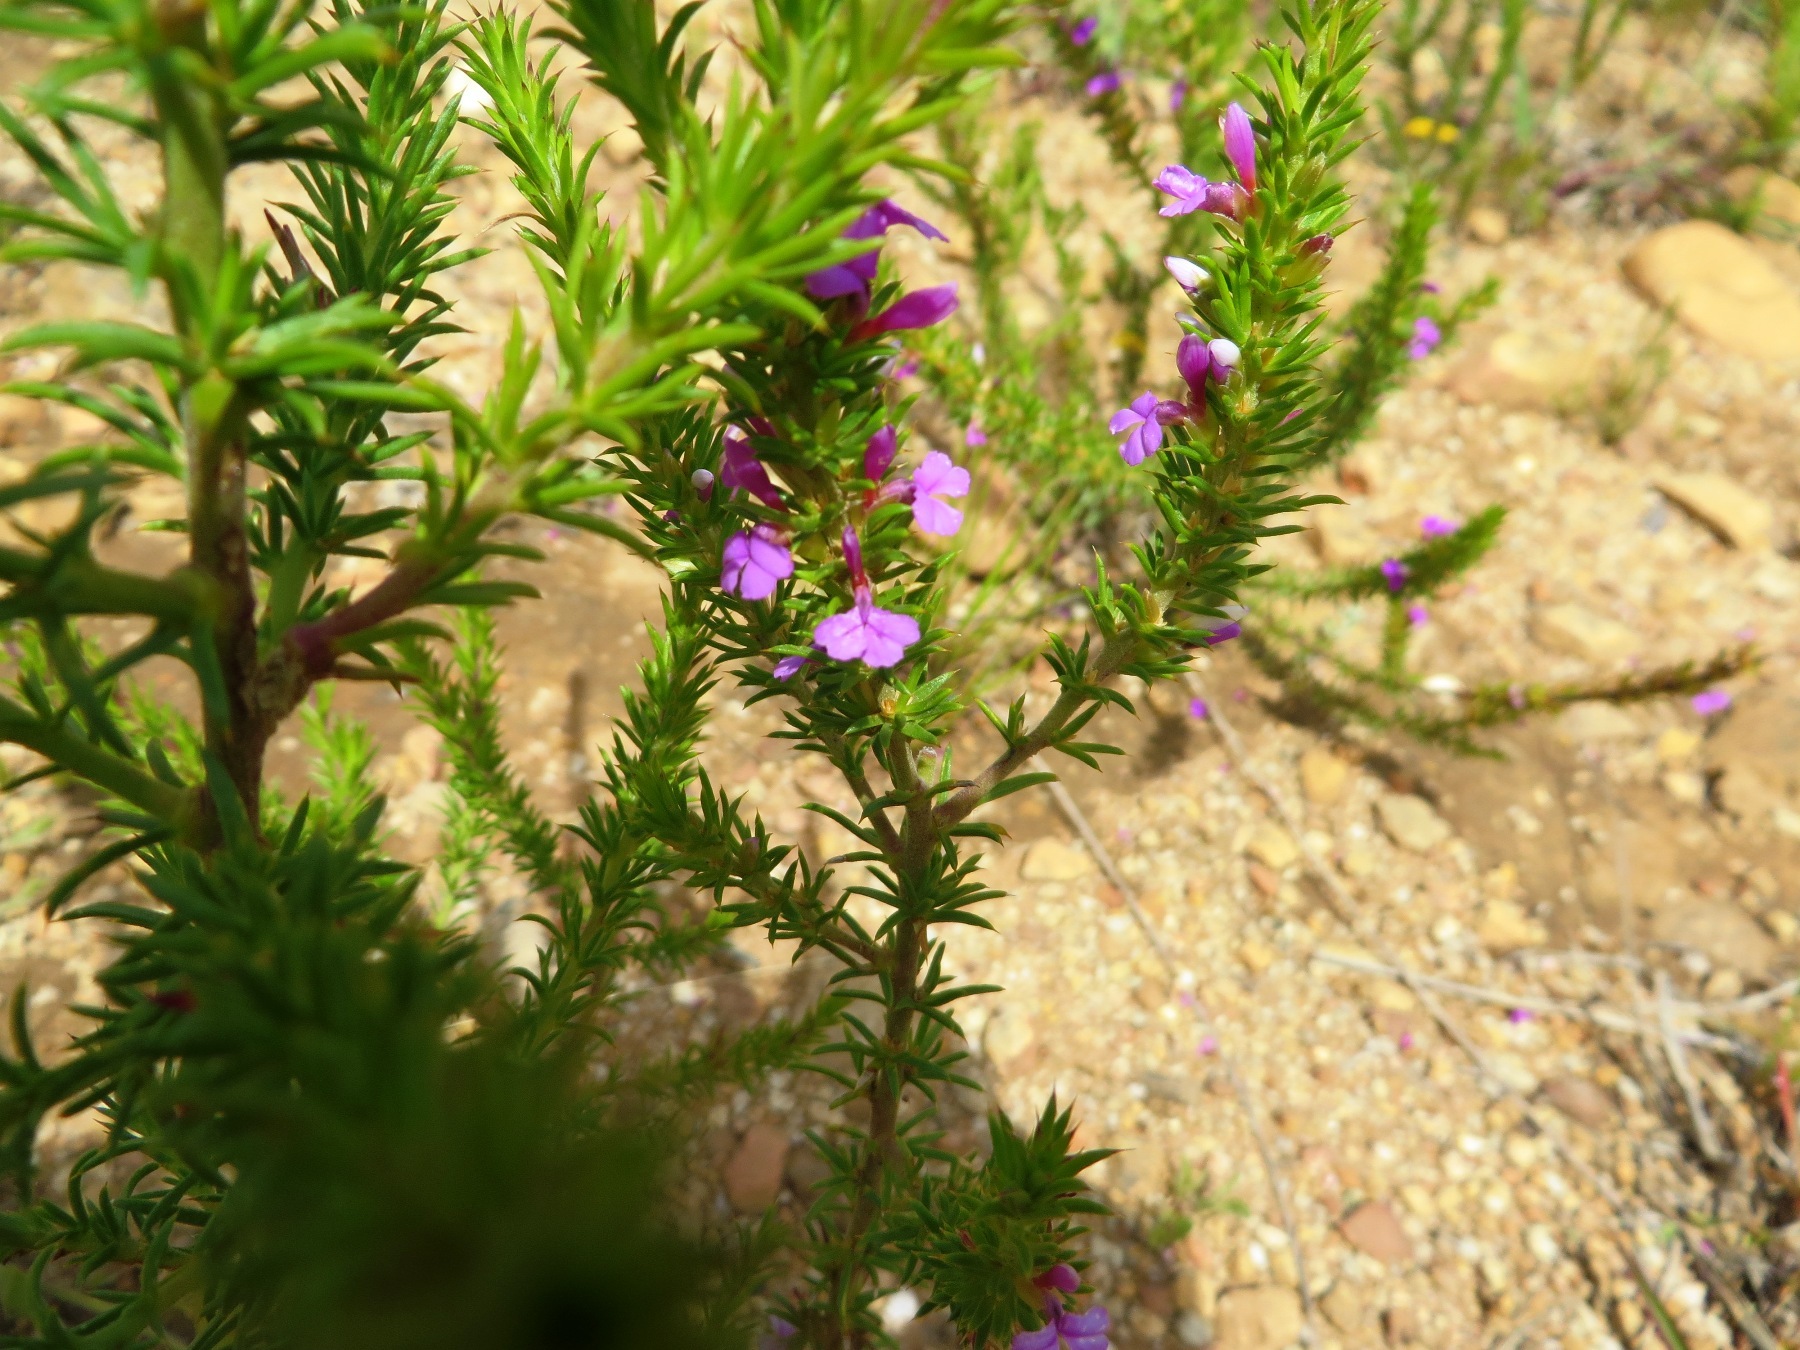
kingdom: Plantae
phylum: Tracheophyta
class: Magnoliopsida
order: Fabales
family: Polygalaceae
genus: Muraltia
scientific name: Muraltia heisteria
